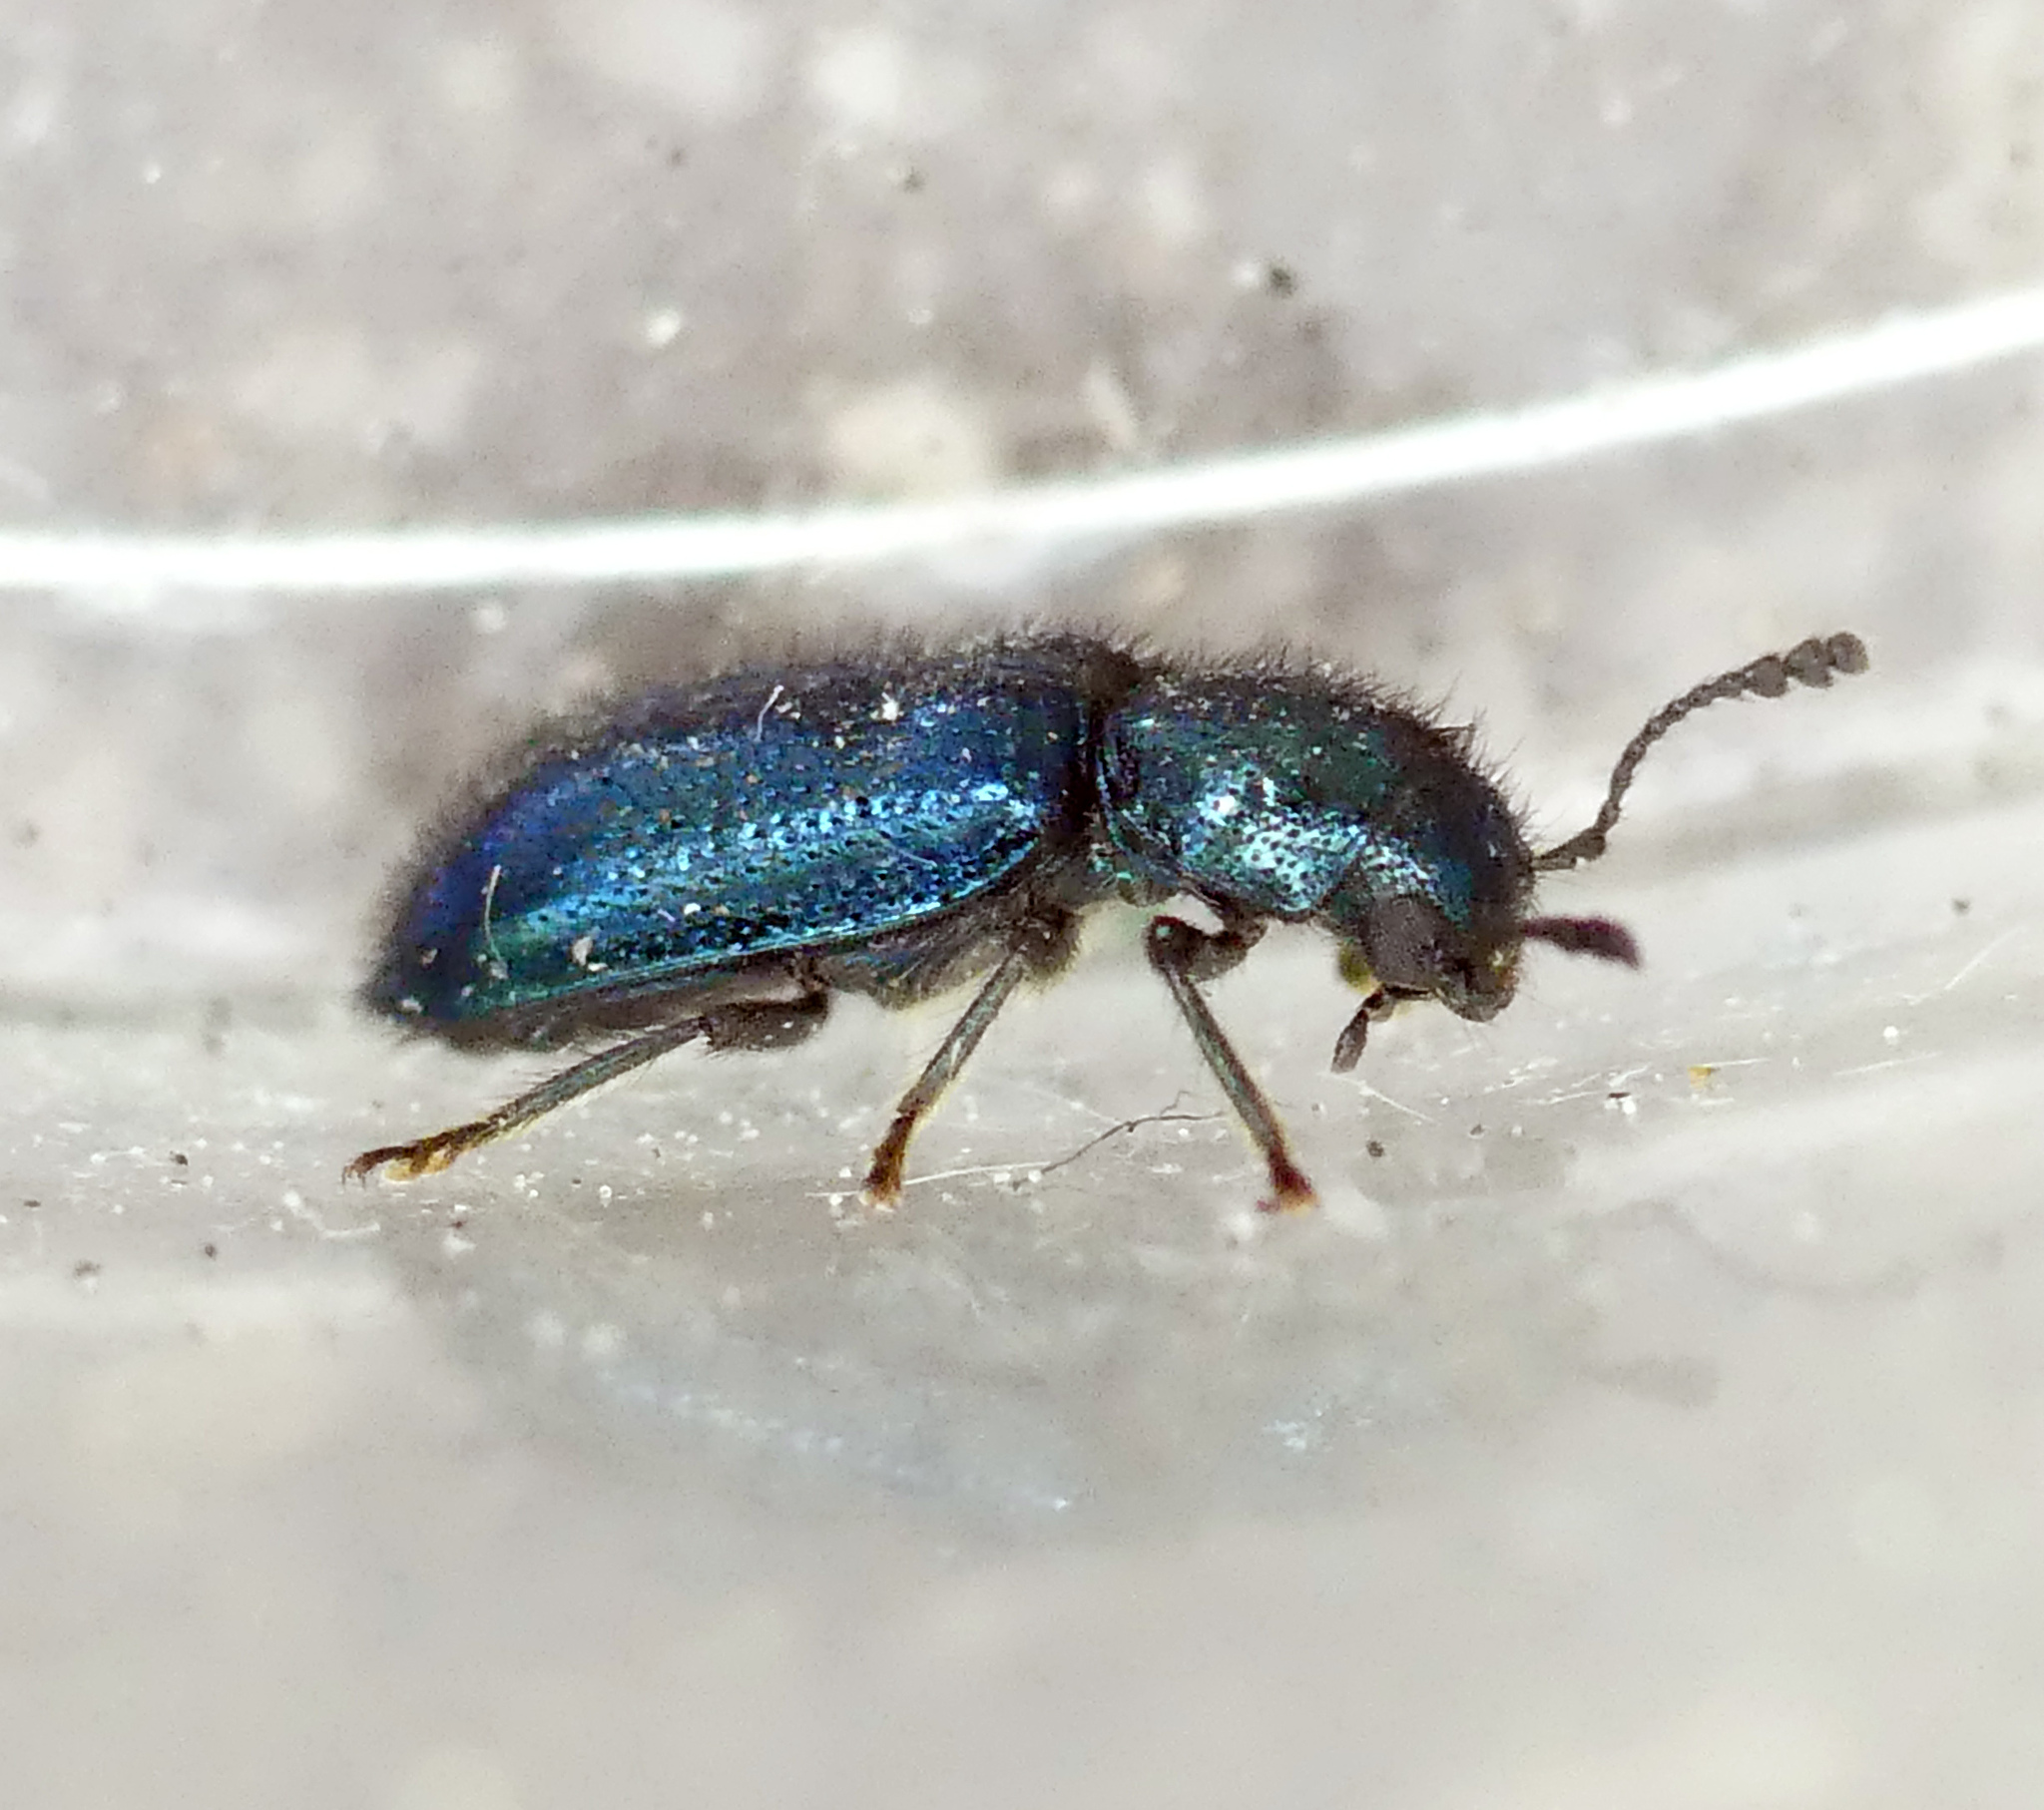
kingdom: Animalia
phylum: Arthropoda
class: Insecta
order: Coleoptera
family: Cleridae
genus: Korynetes
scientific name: Korynetes caeruleus
